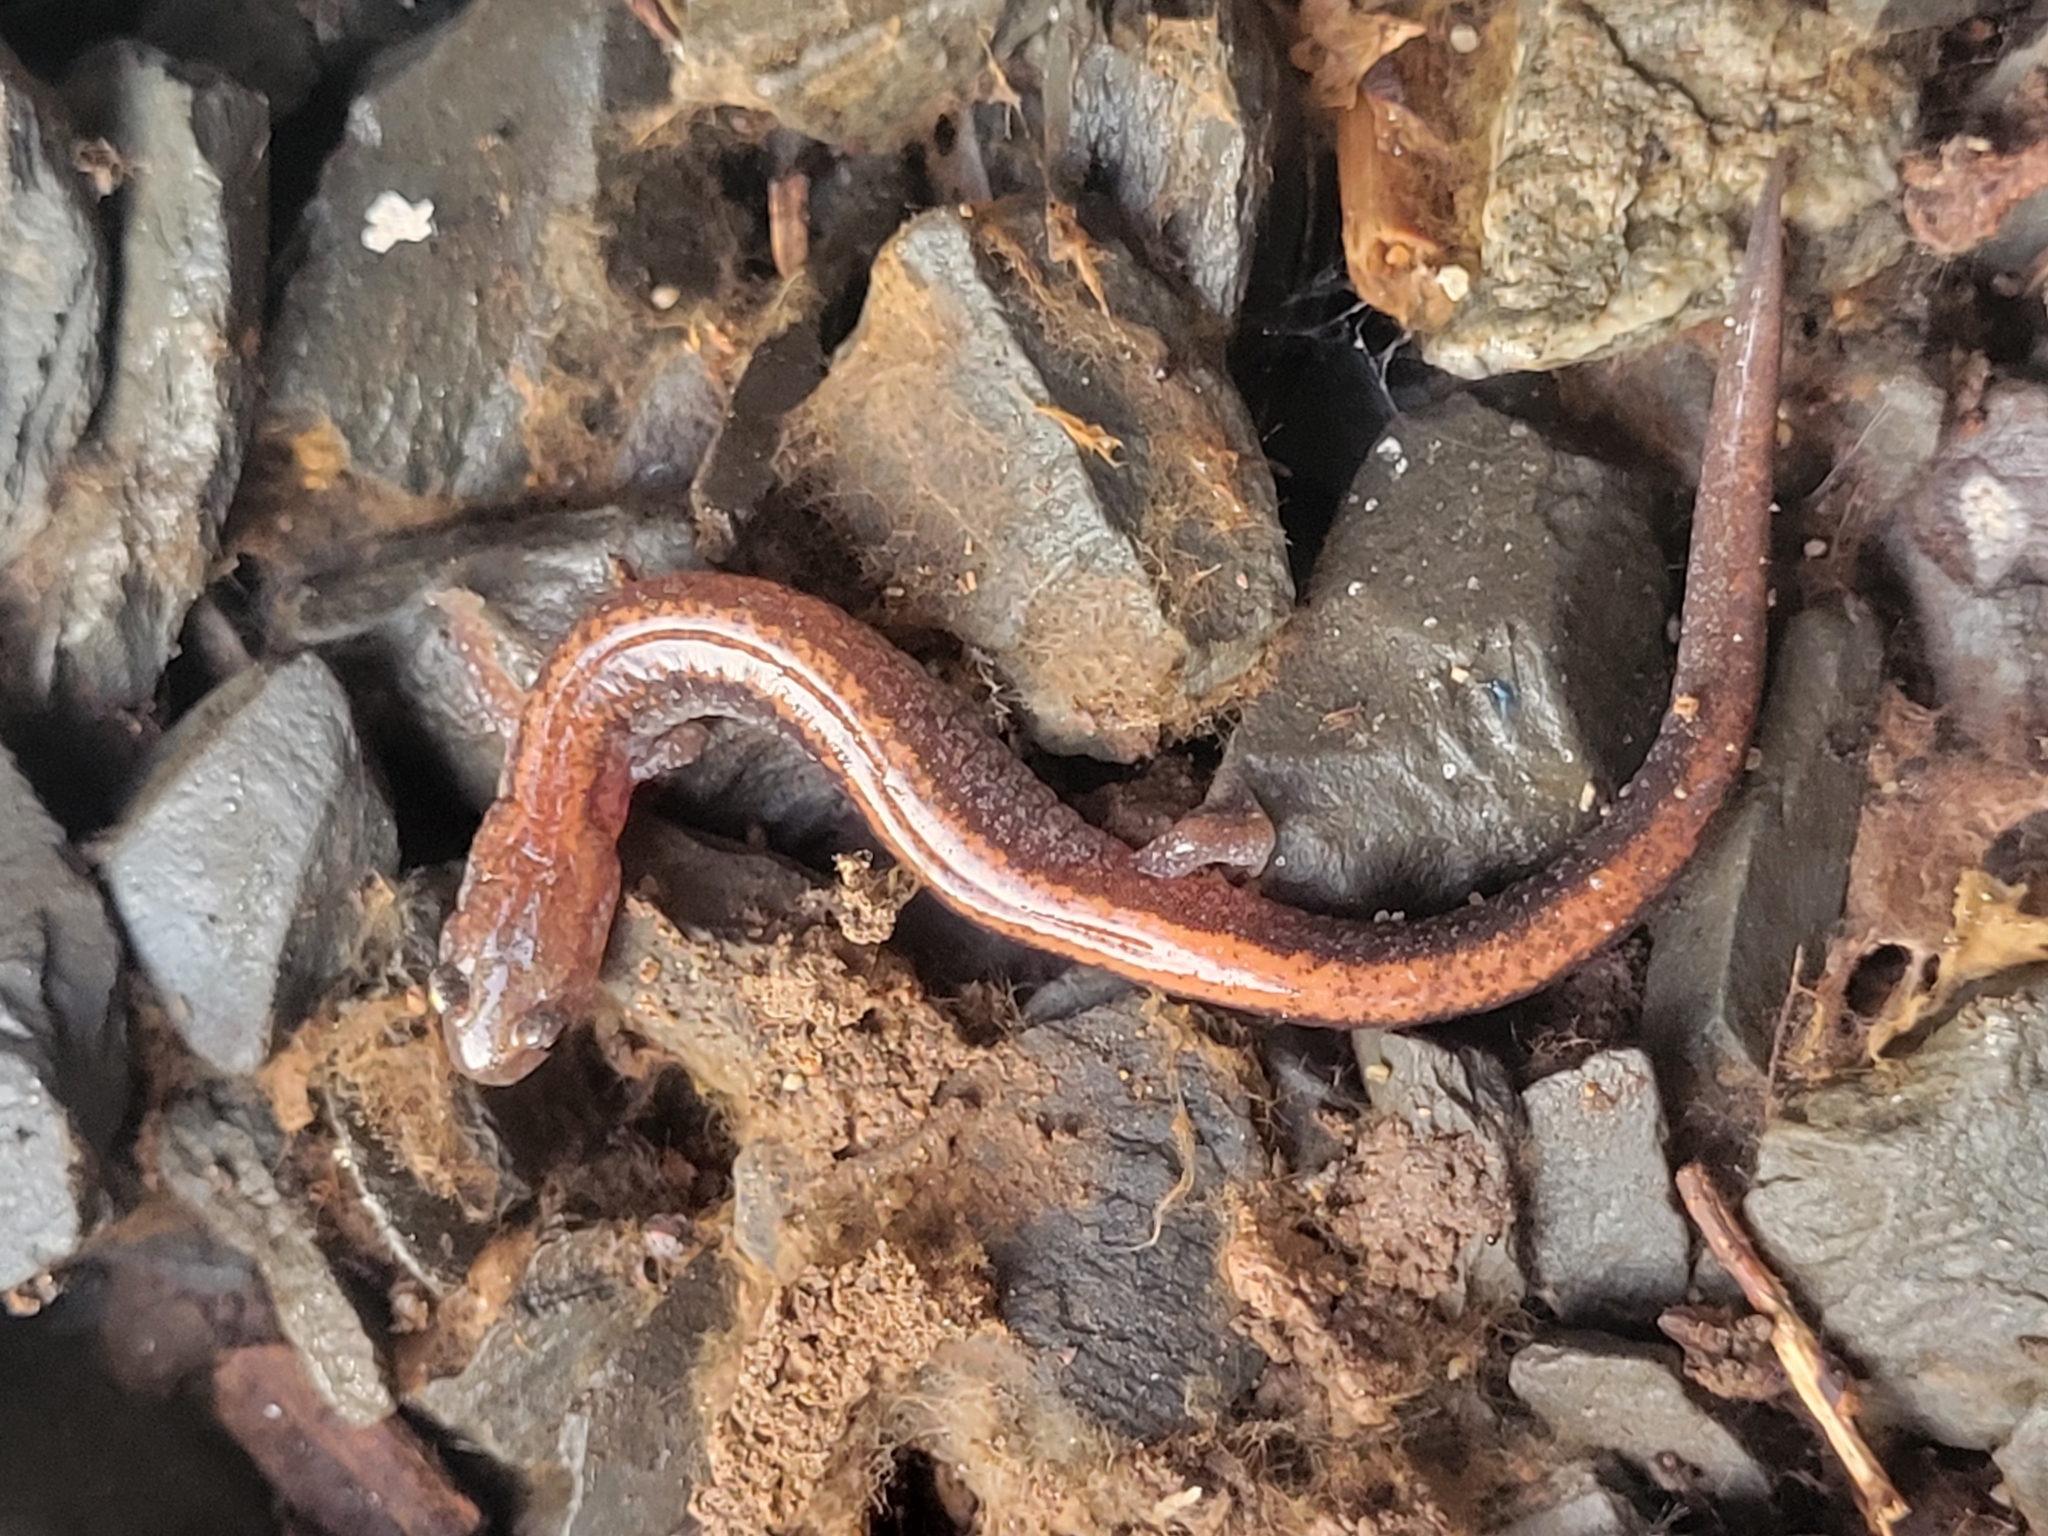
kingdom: Animalia
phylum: Chordata
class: Amphibia
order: Caudata
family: Plethodontidae
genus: Plethodon
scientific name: Plethodon cinereus
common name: Redback salamander
